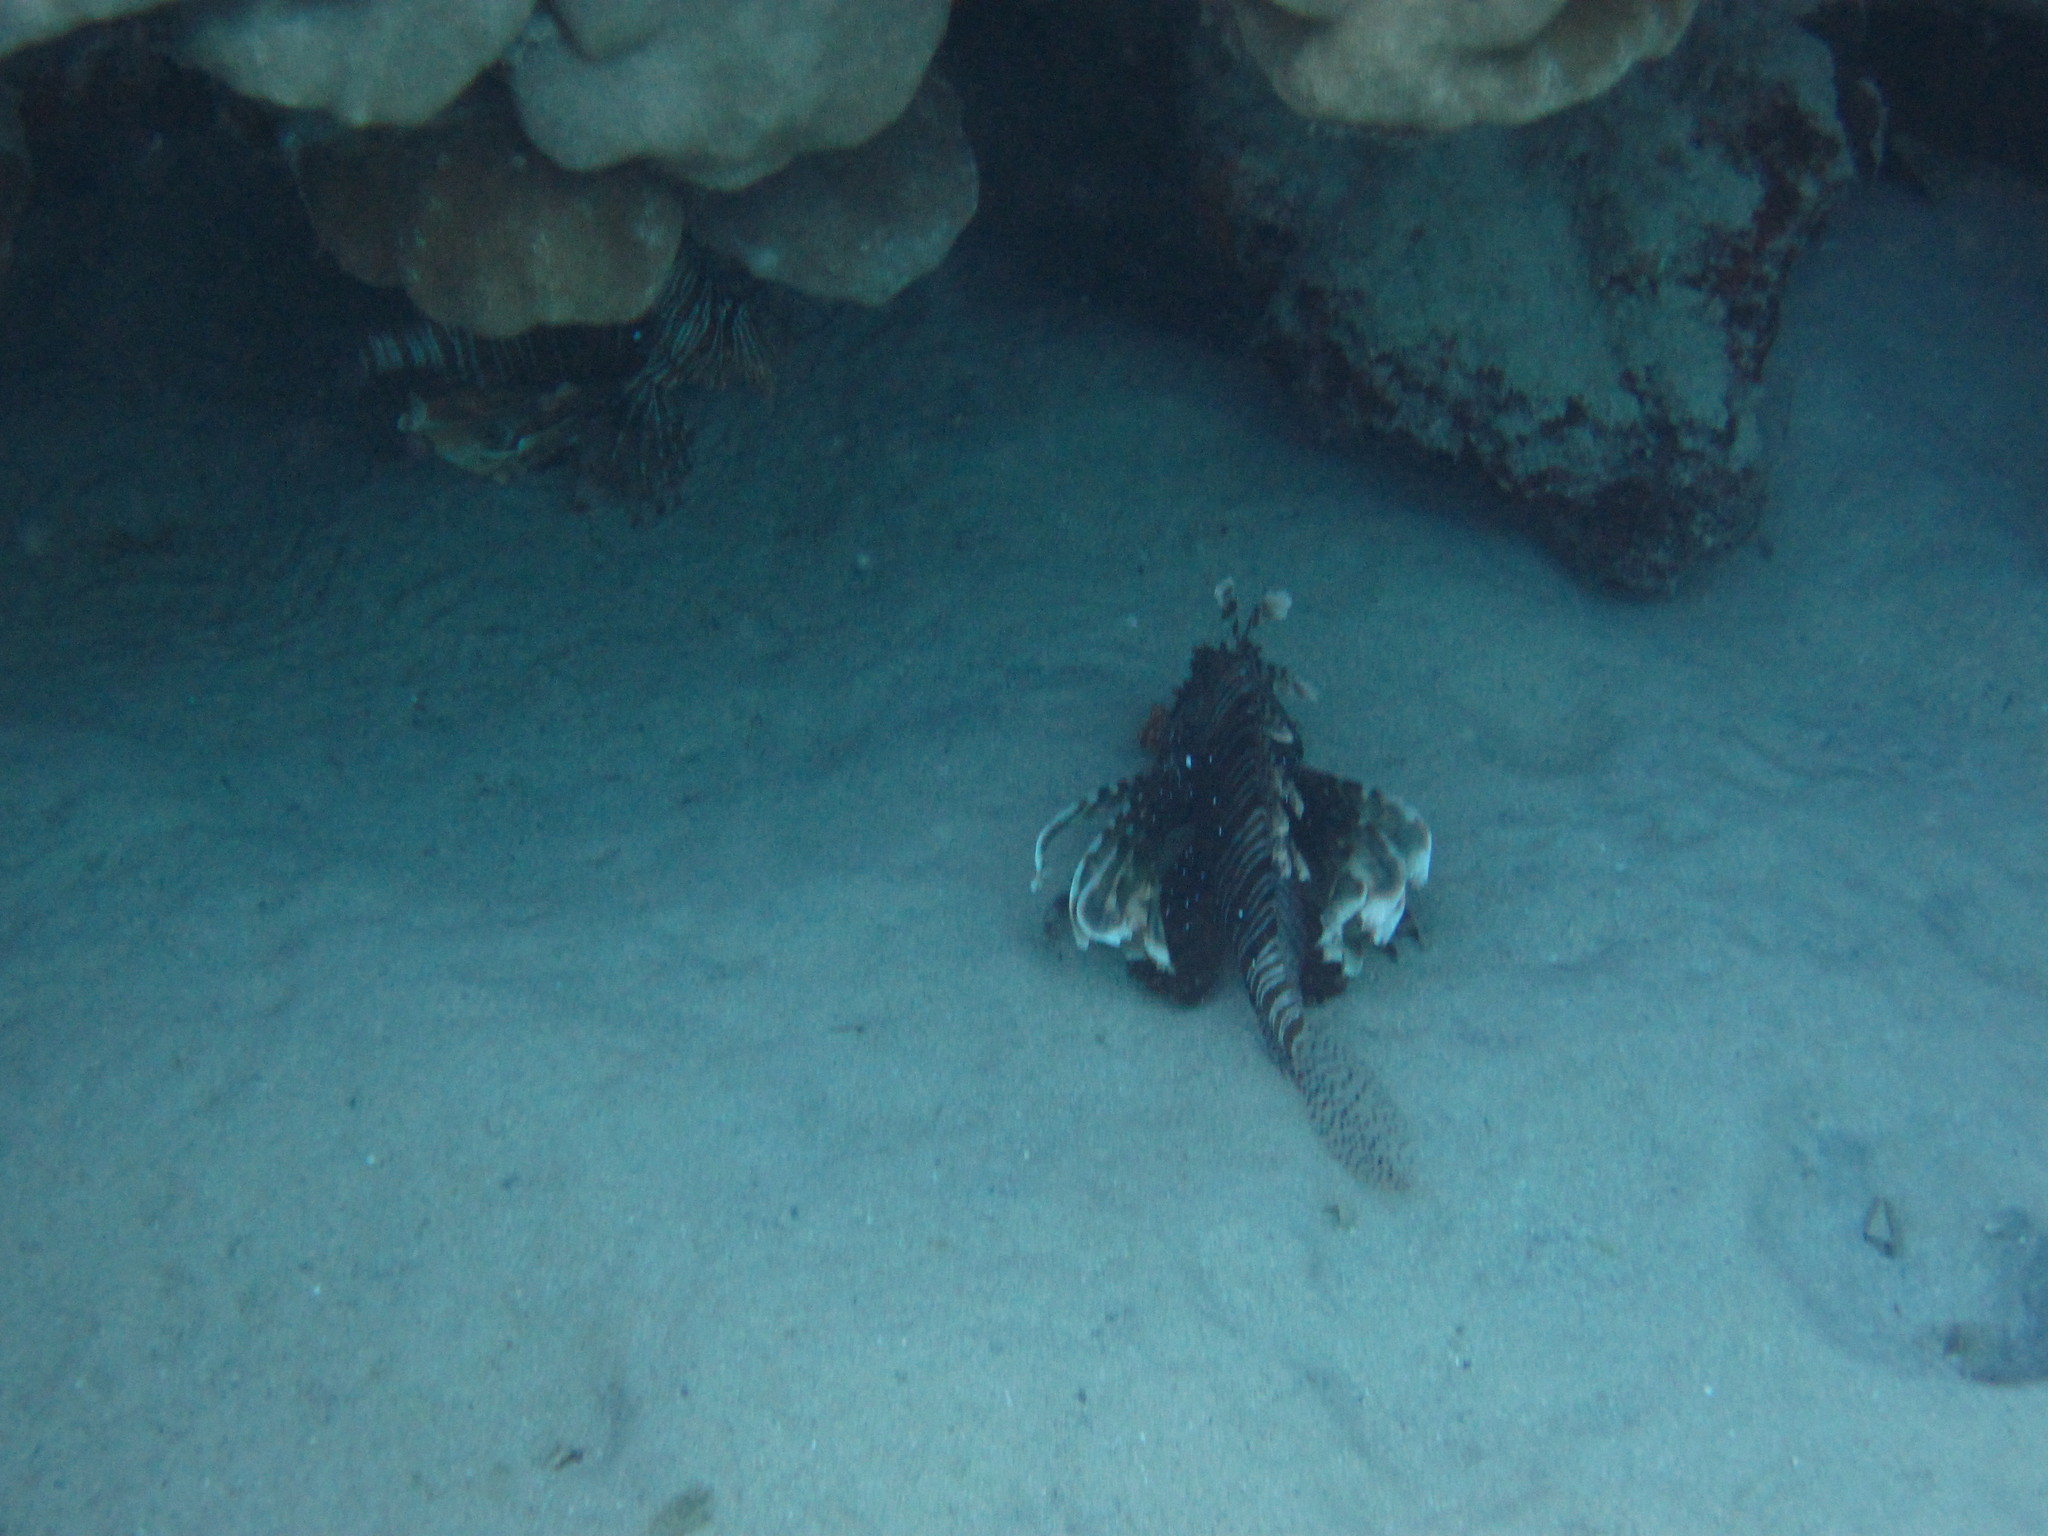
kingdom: Animalia
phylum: Chordata
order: Scorpaeniformes
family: Scorpaenidae
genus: Pterois
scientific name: Pterois miles
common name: Devil firefish
